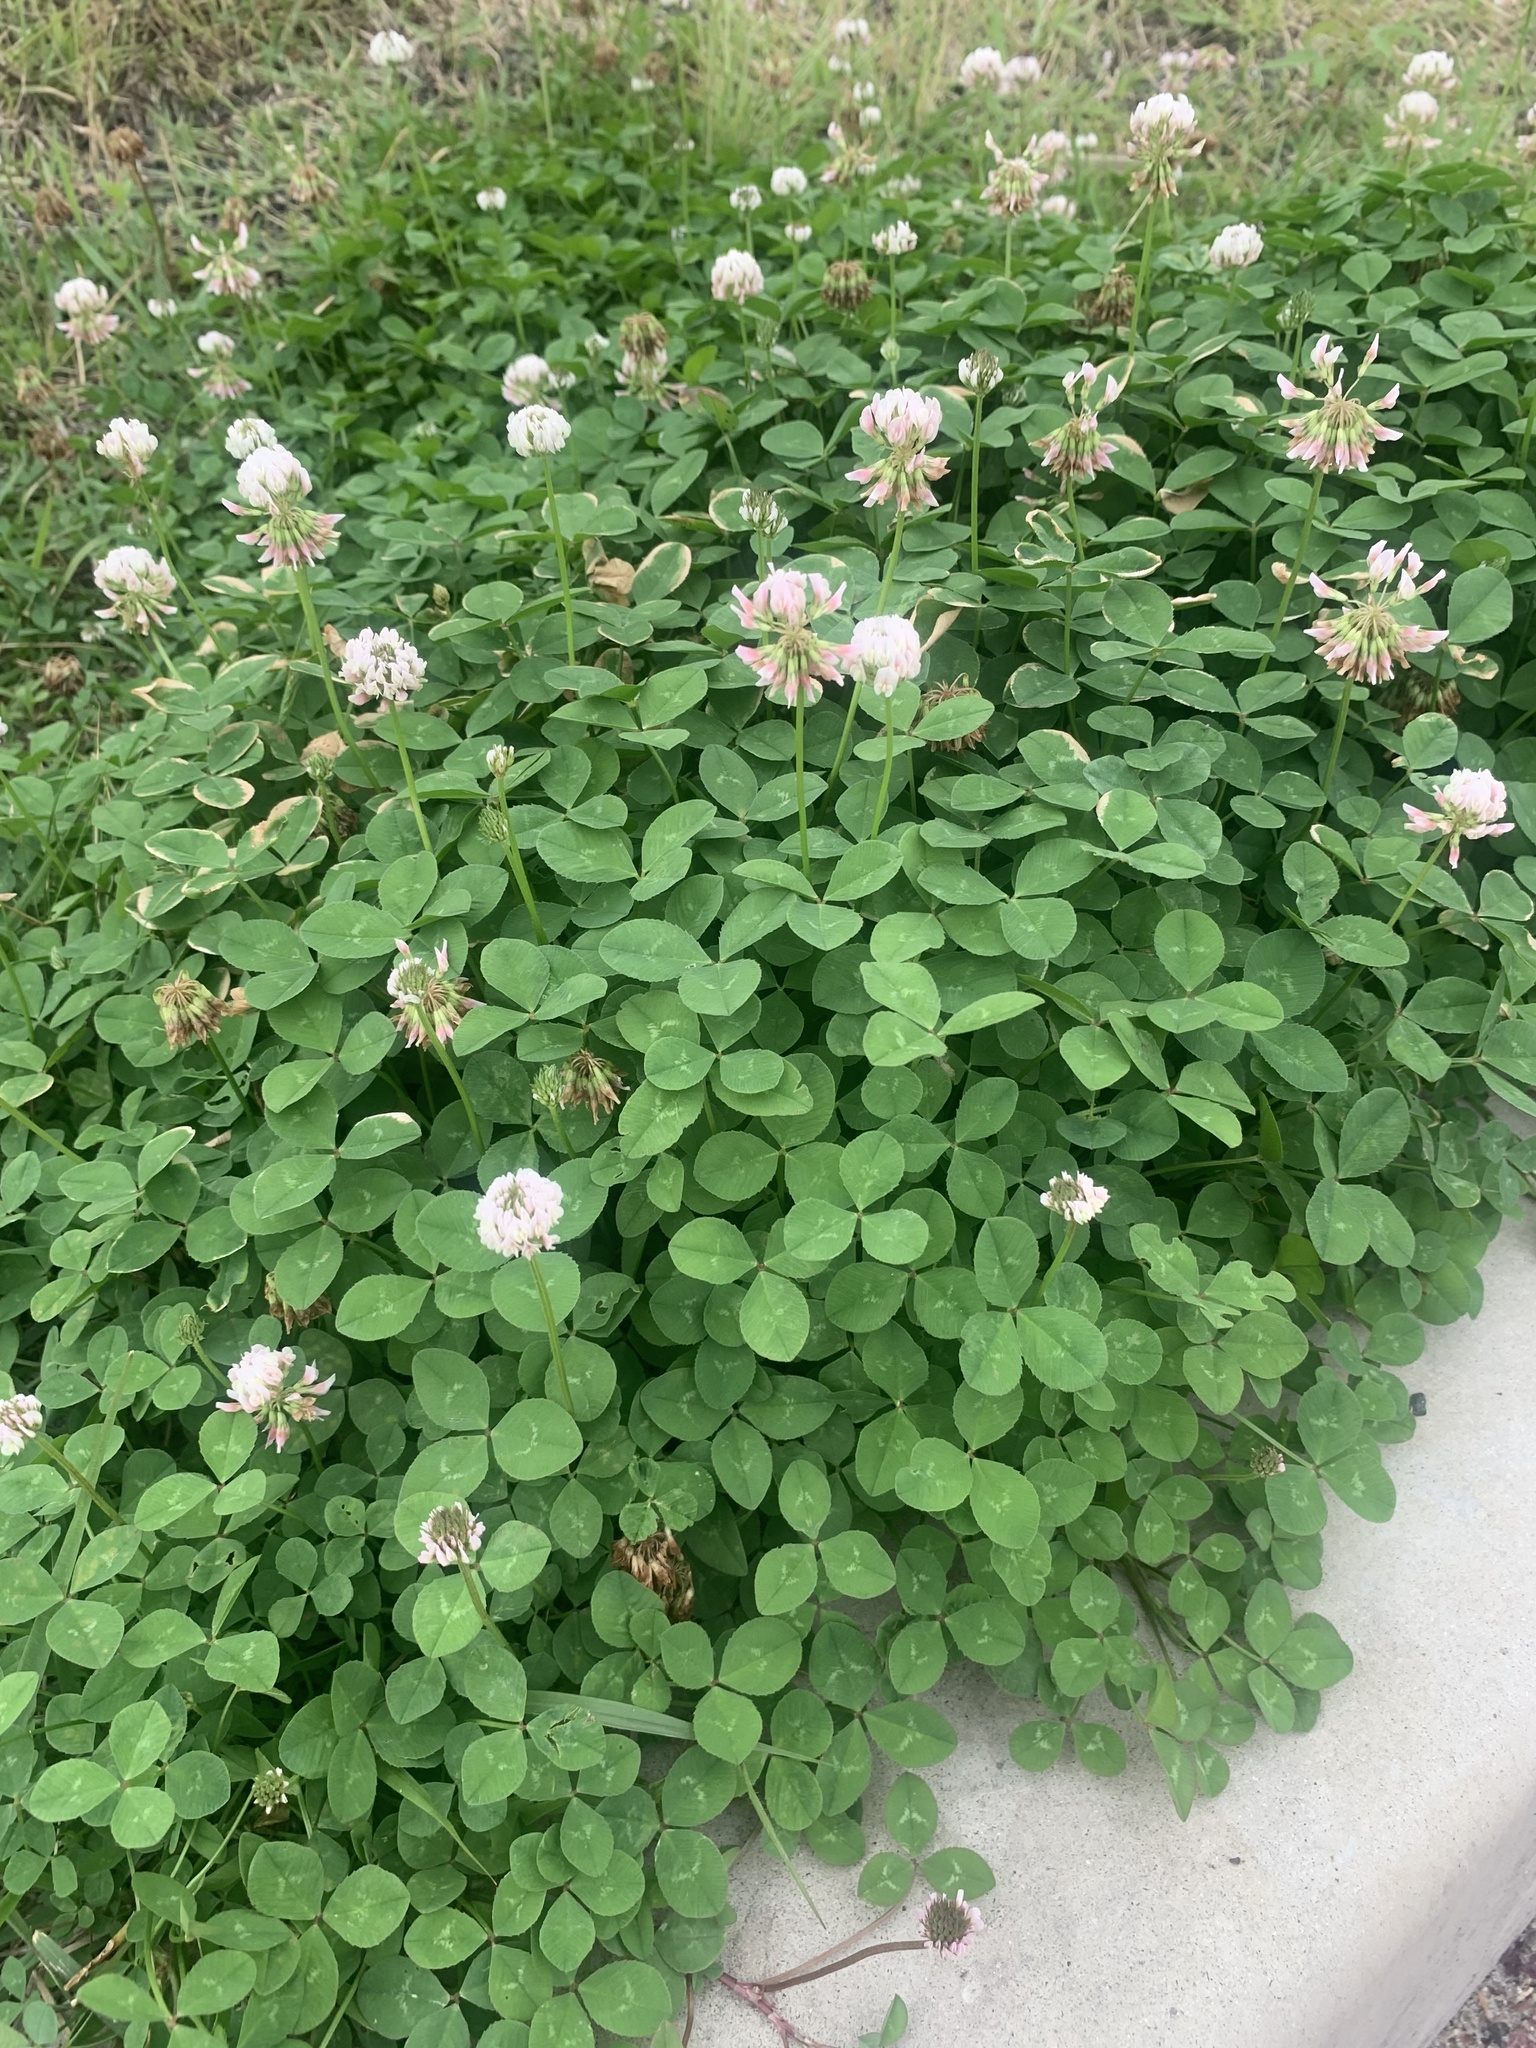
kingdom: Plantae
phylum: Tracheophyta
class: Magnoliopsida
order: Fabales
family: Fabaceae
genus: Trifolium
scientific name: Trifolium repens
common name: White clover
